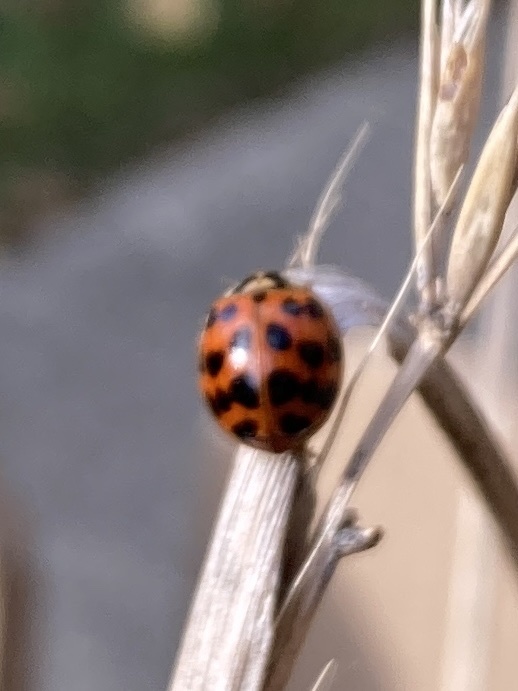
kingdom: Animalia
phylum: Arthropoda
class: Insecta
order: Coleoptera
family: Coccinellidae
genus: Harmonia
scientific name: Harmonia axyridis
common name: Harlequin ladybird
